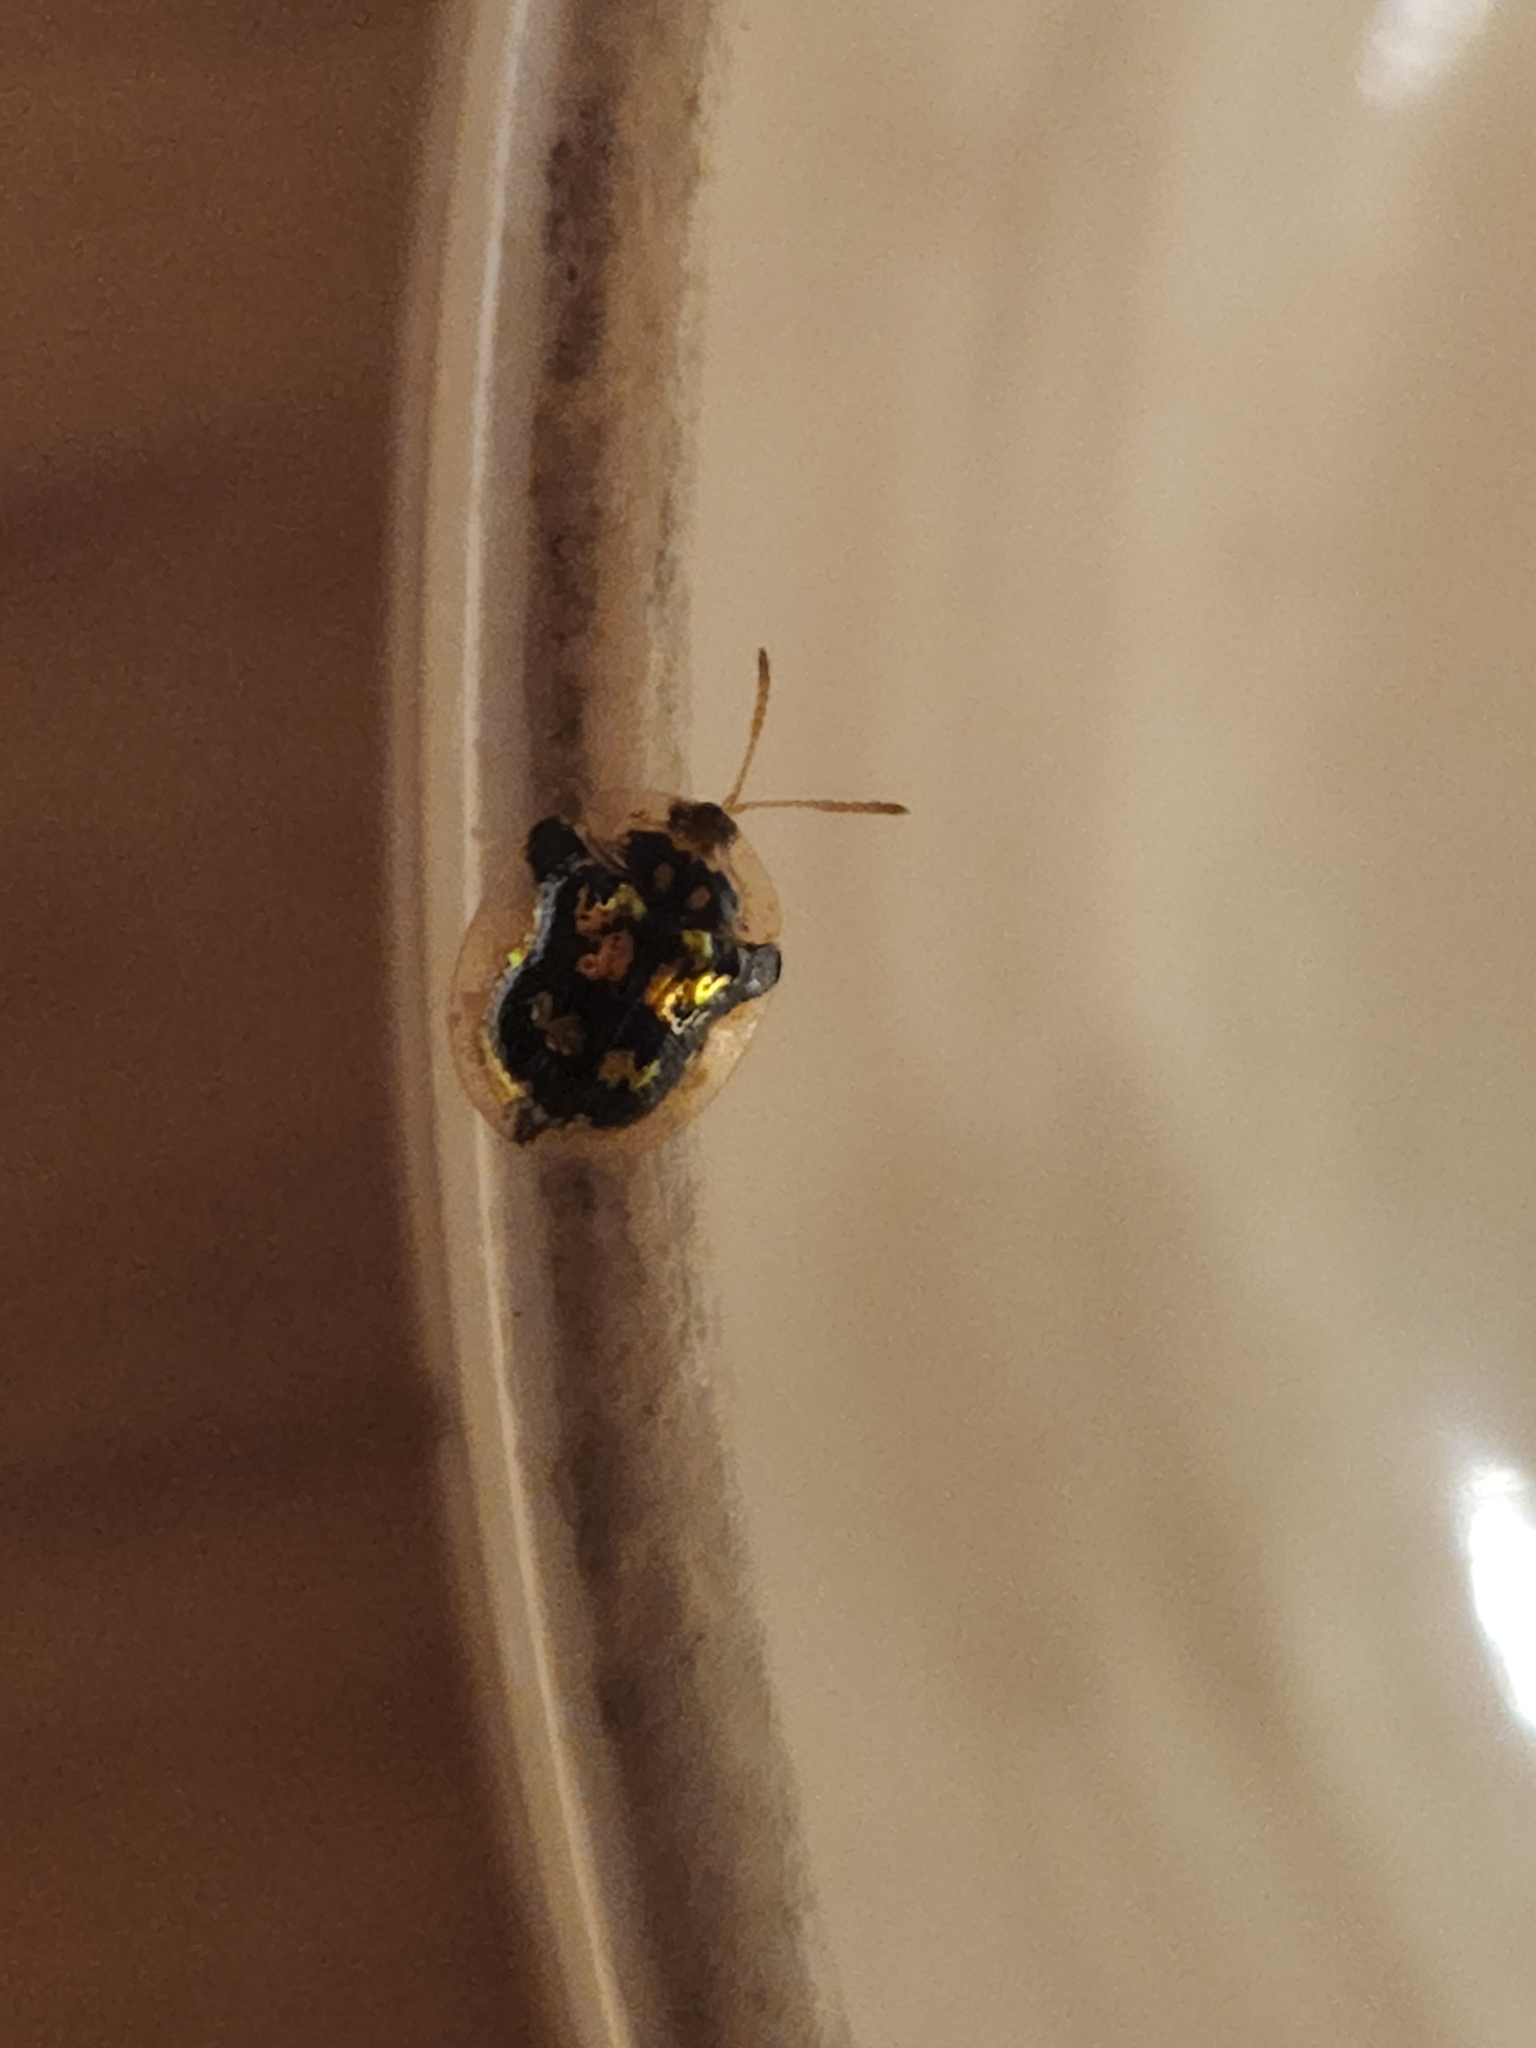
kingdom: Animalia
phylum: Arthropoda
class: Insecta
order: Coleoptera
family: Chrysomelidae
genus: Deloyala
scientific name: Deloyala guttata
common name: Mottled tortoise beetle
